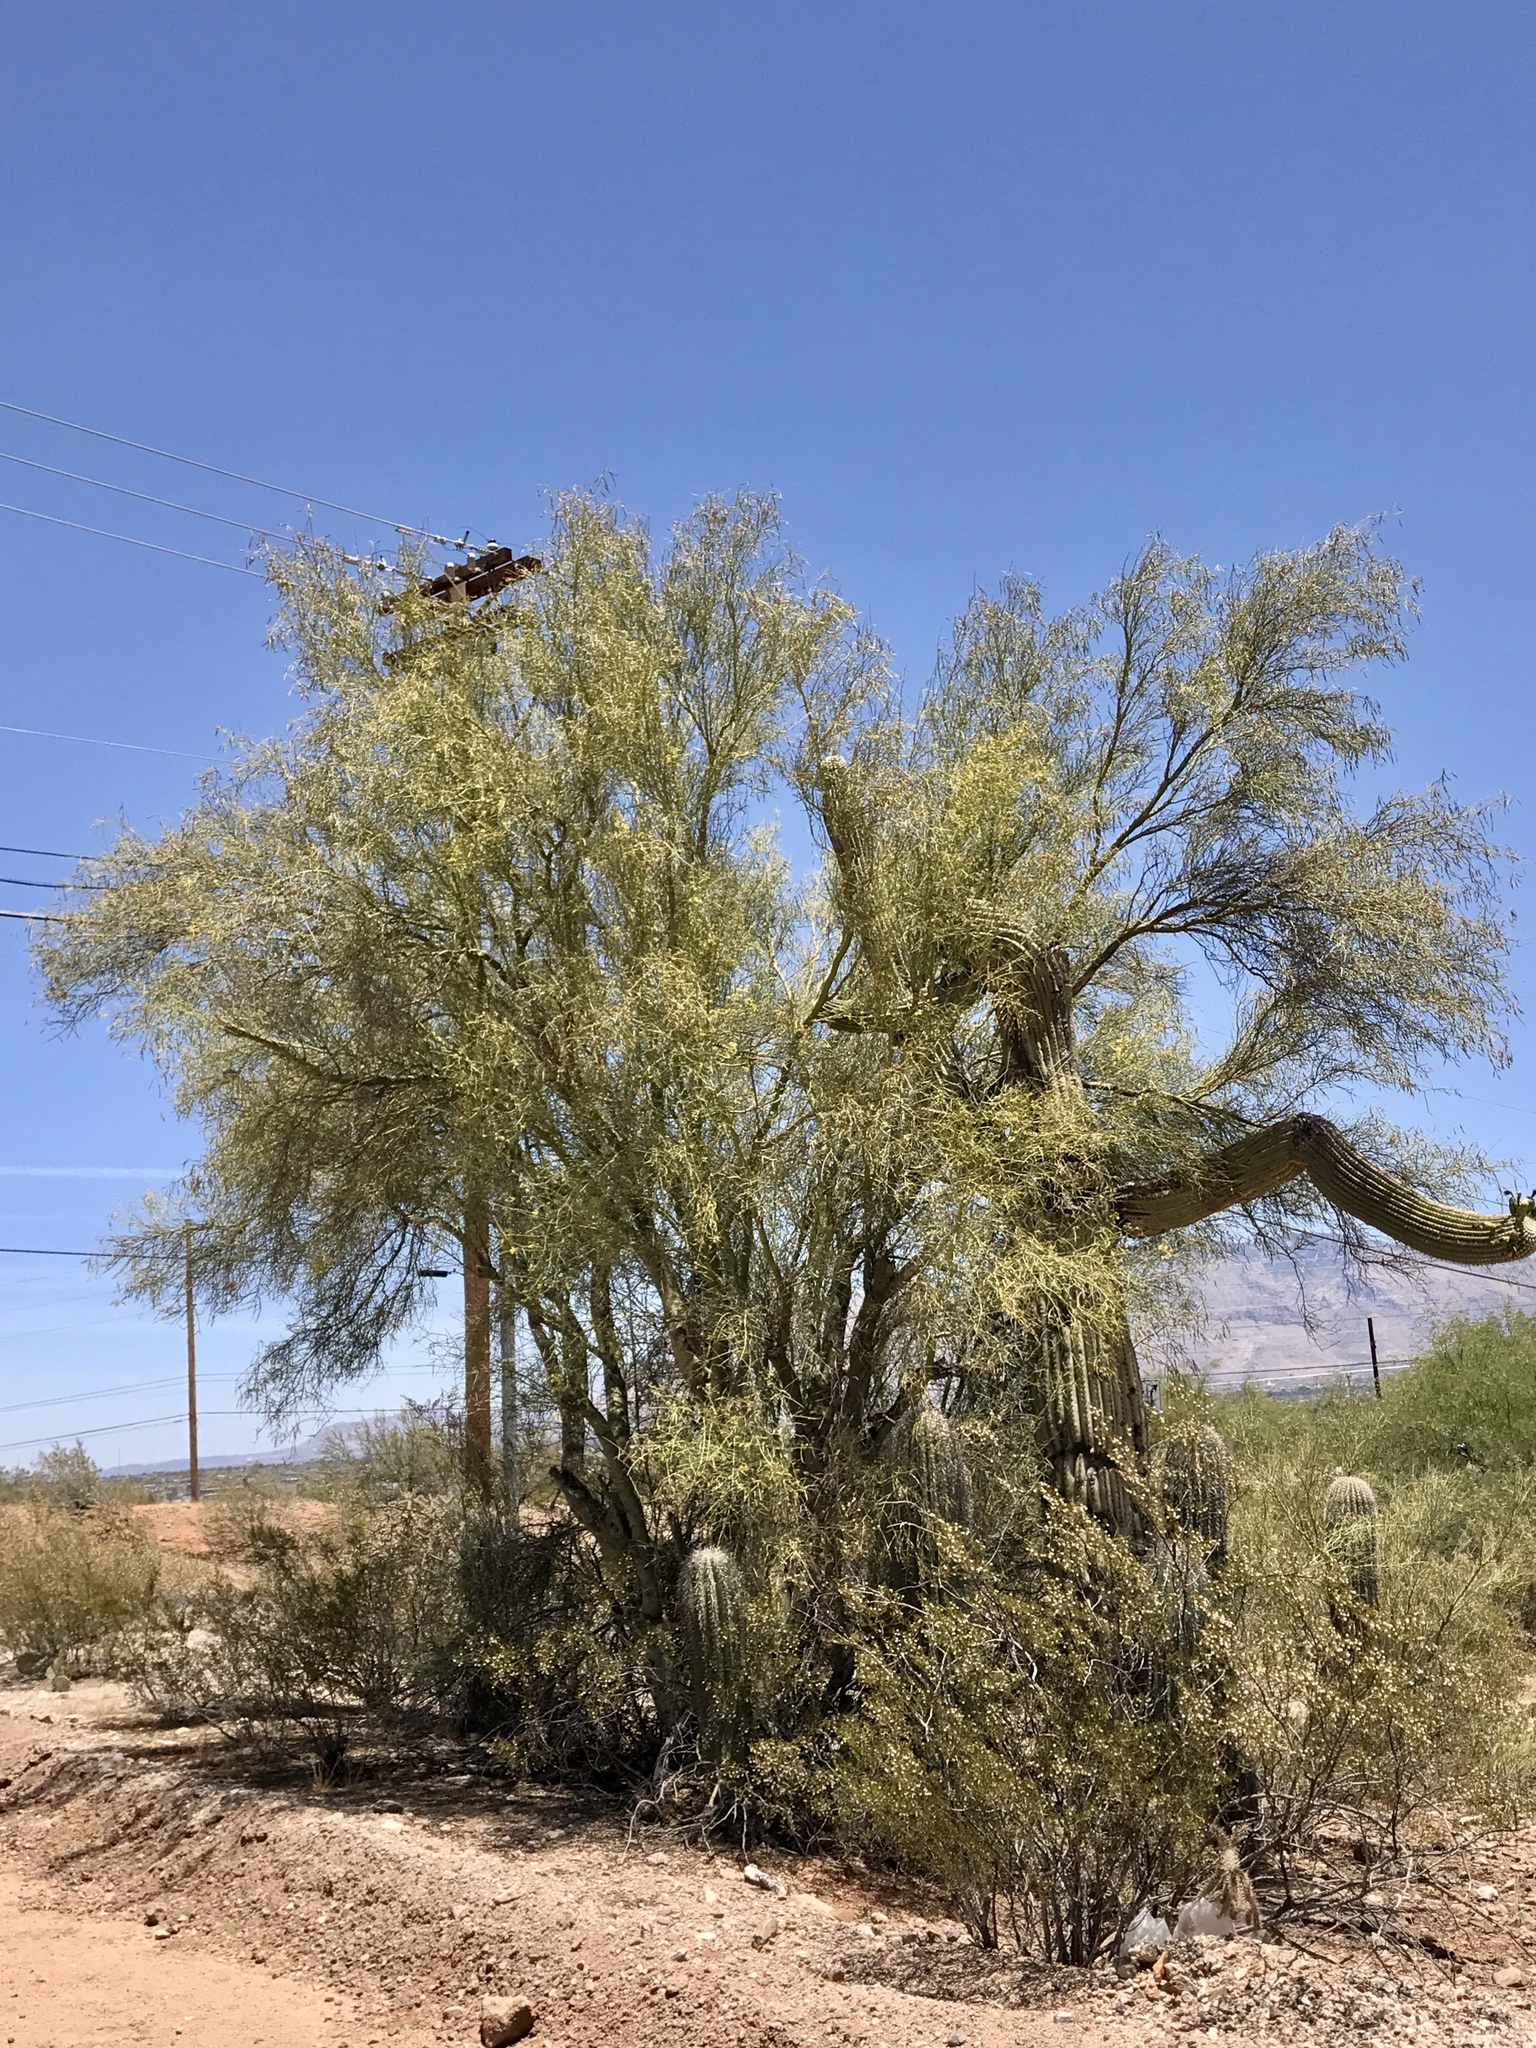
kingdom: Plantae
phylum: Tracheophyta
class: Magnoliopsida
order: Fabales
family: Fabaceae
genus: Parkinsonia
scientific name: Parkinsonia microphylla
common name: Yellow paloverde
